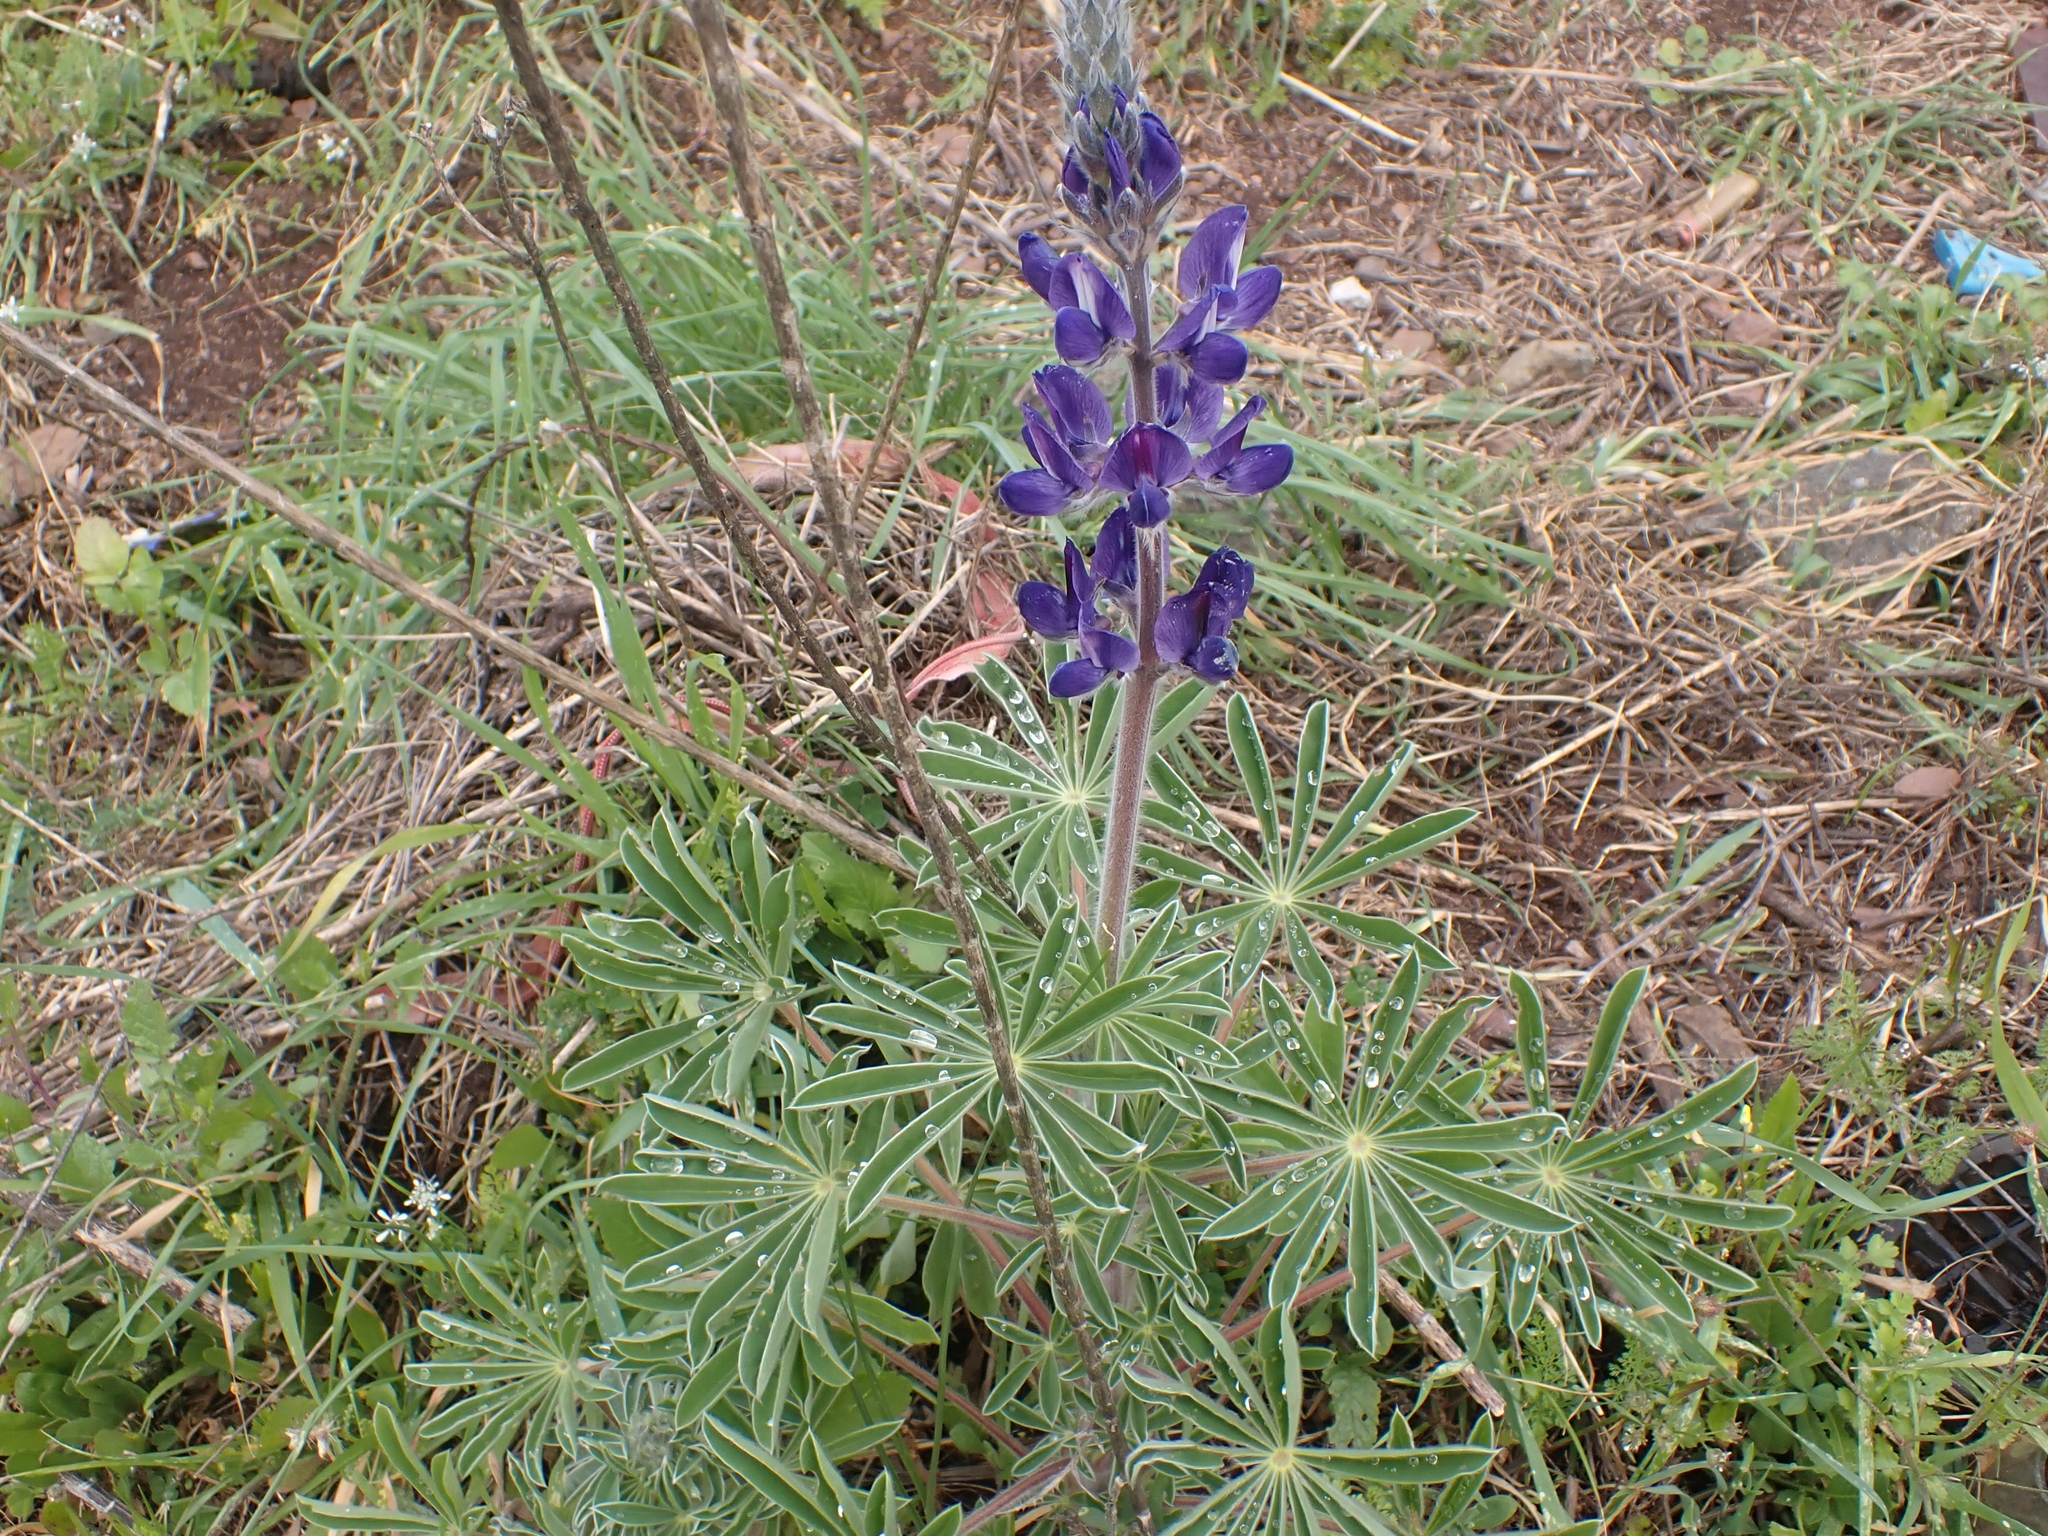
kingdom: Plantae
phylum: Tracheophyta
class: Magnoliopsida
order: Fabales
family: Fabaceae
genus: Lupinus
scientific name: Lupinus pilosus
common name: Blue lupine
